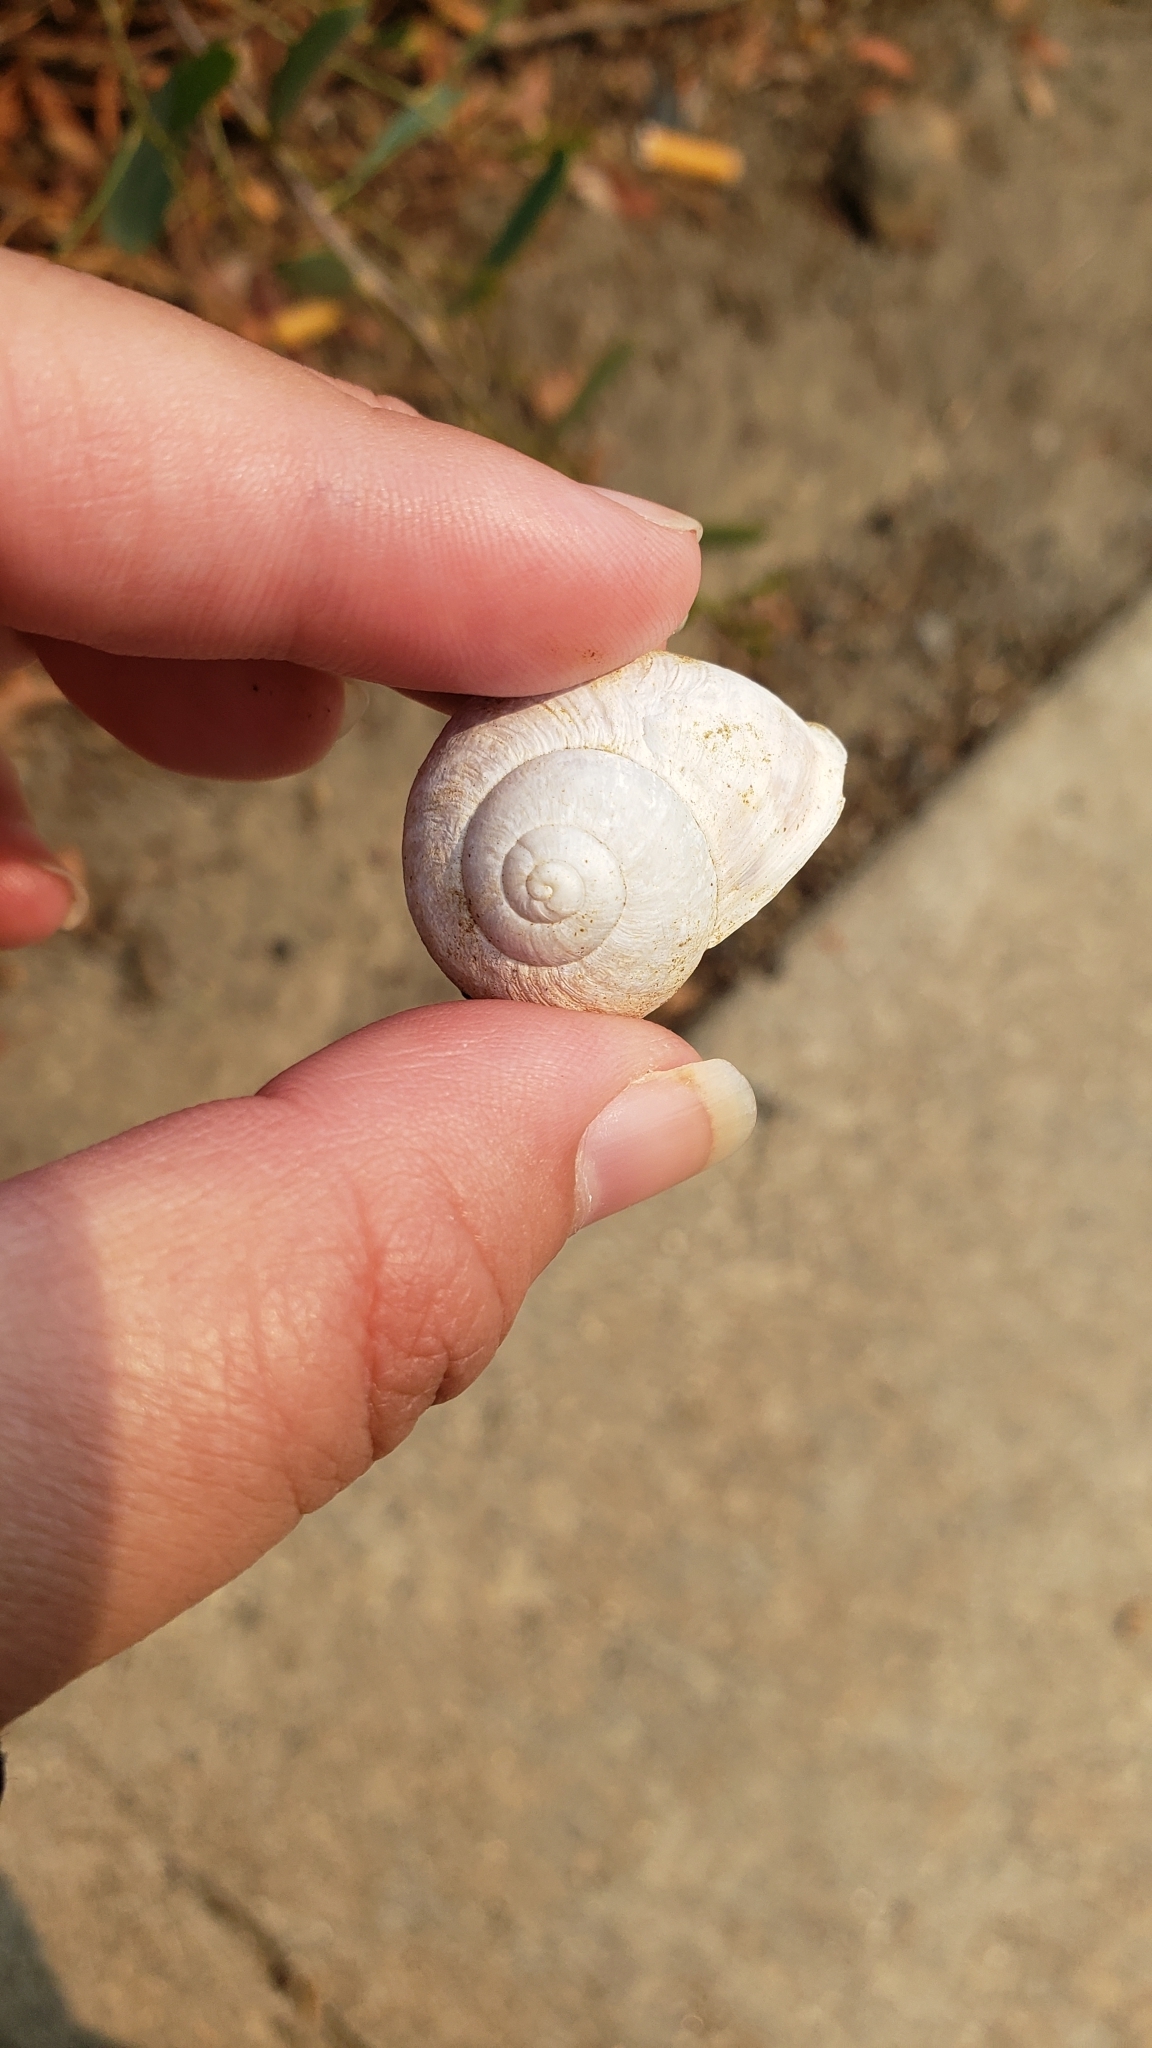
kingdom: Animalia
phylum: Mollusca
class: Gastropoda
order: Stylommatophora
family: Helicidae
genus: Cornu
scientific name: Cornu aspersum
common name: Brown garden snail
